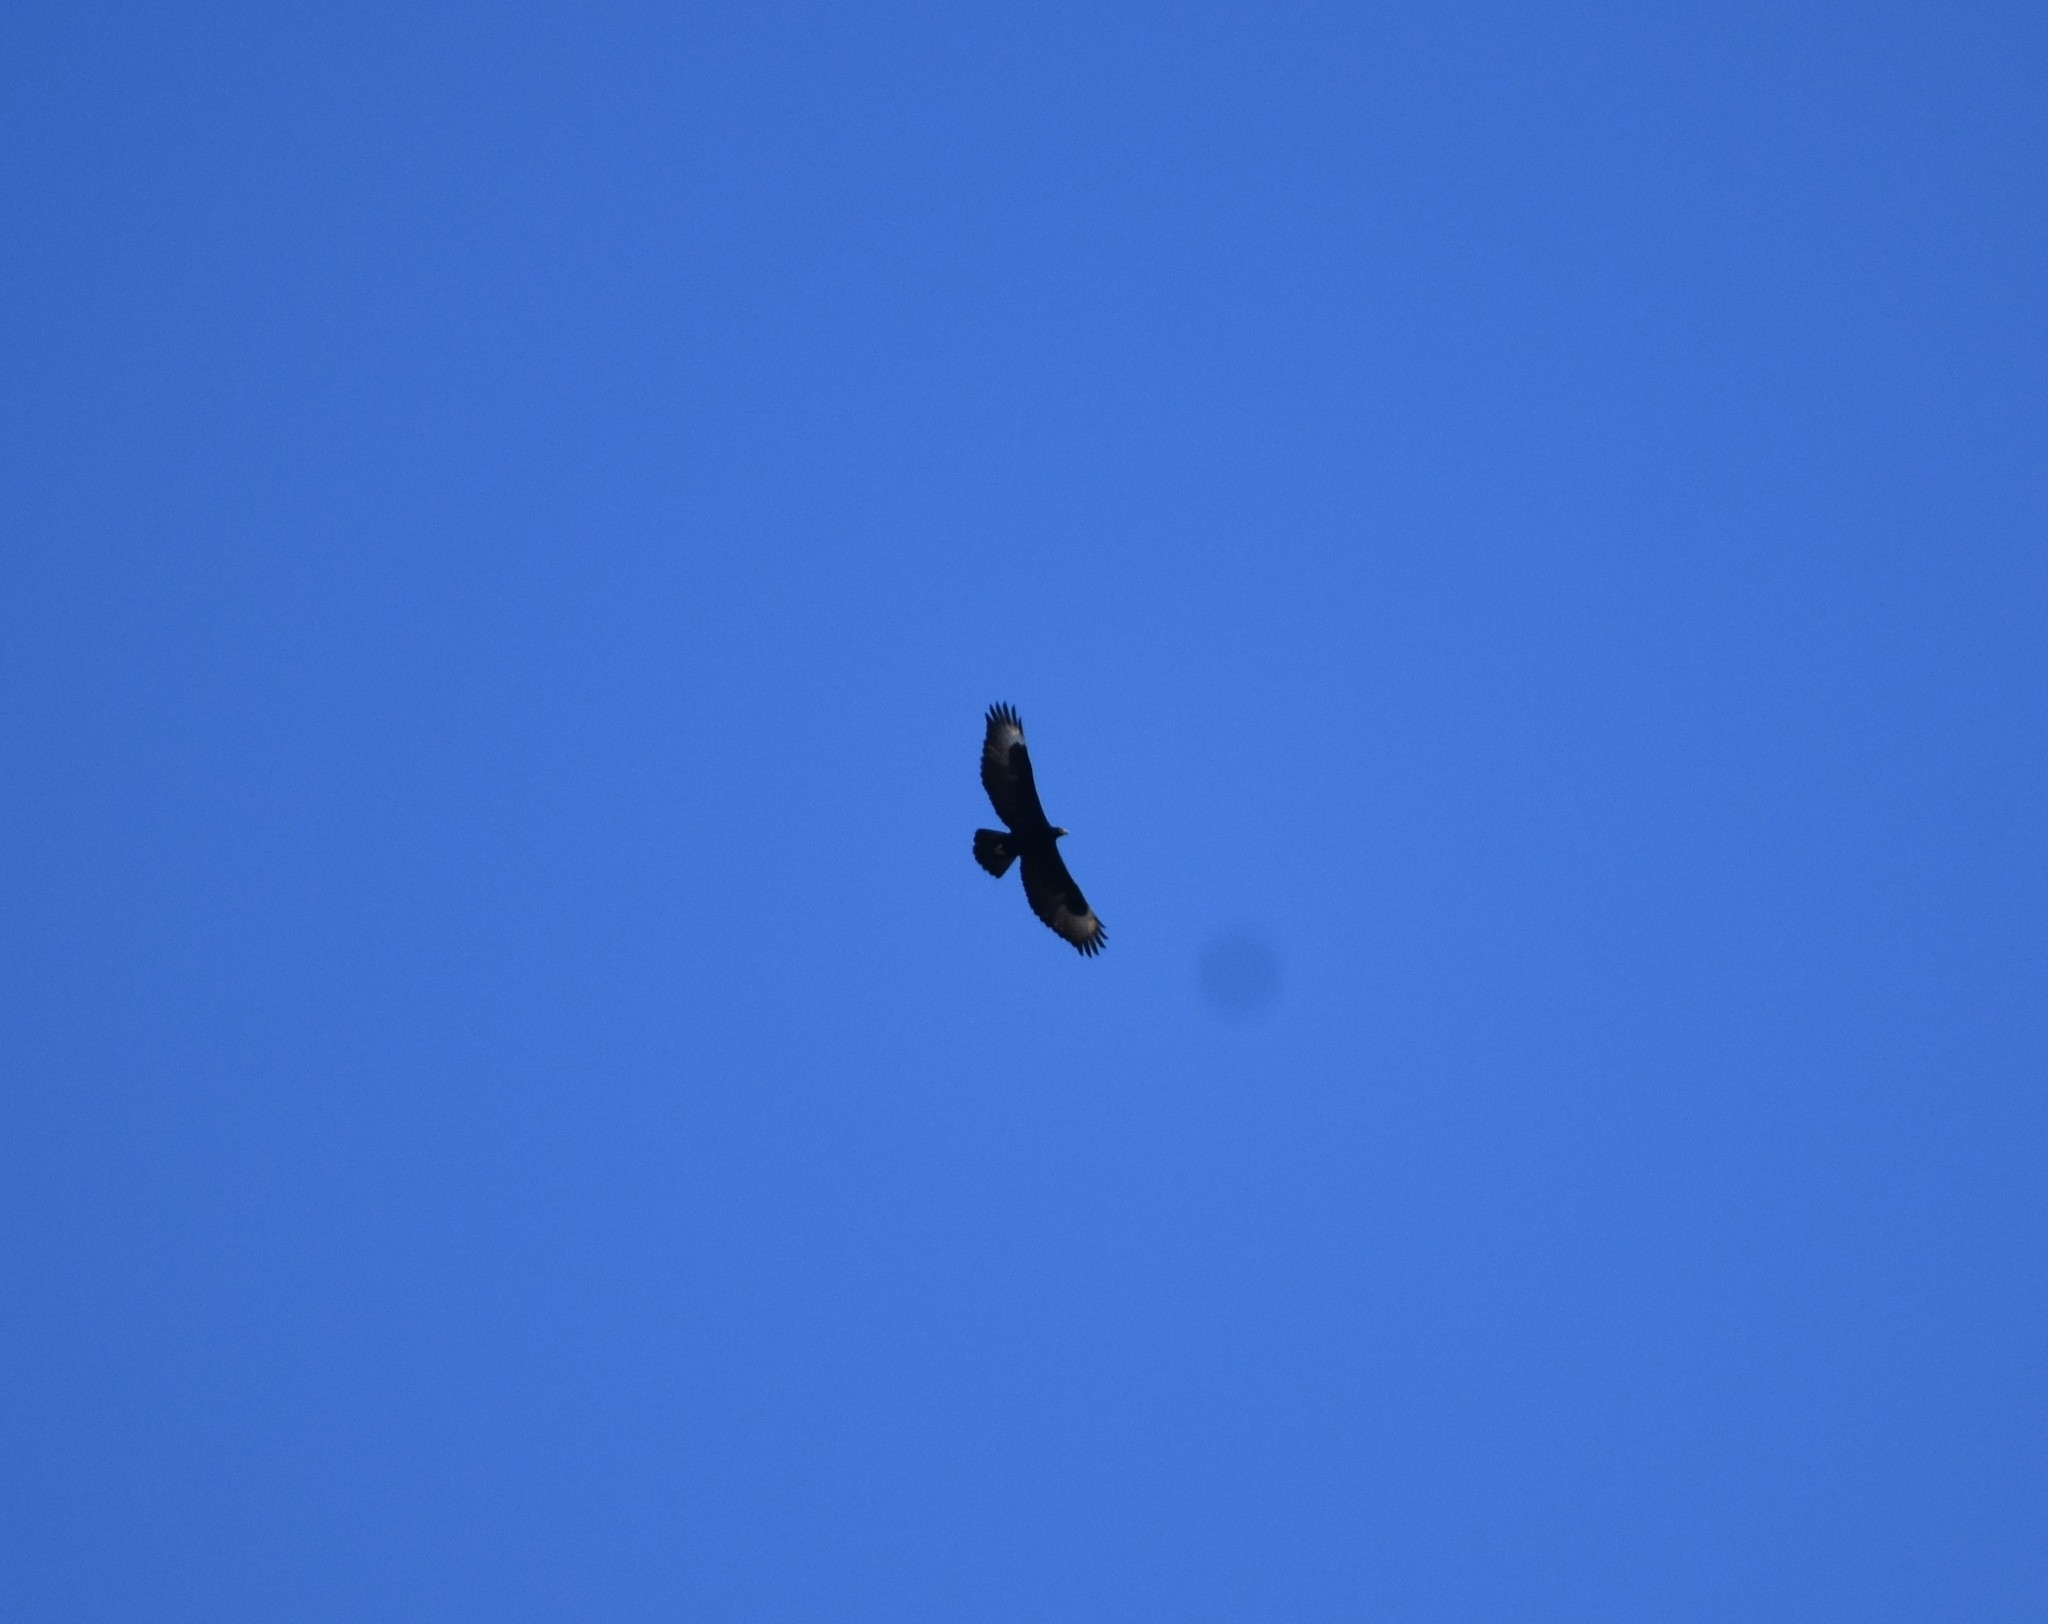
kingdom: Animalia
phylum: Chordata
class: Aves
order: Accipitriformes
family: Accipitridae
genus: Aquila
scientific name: Aquila verreauxii
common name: Verreaux's eagle
